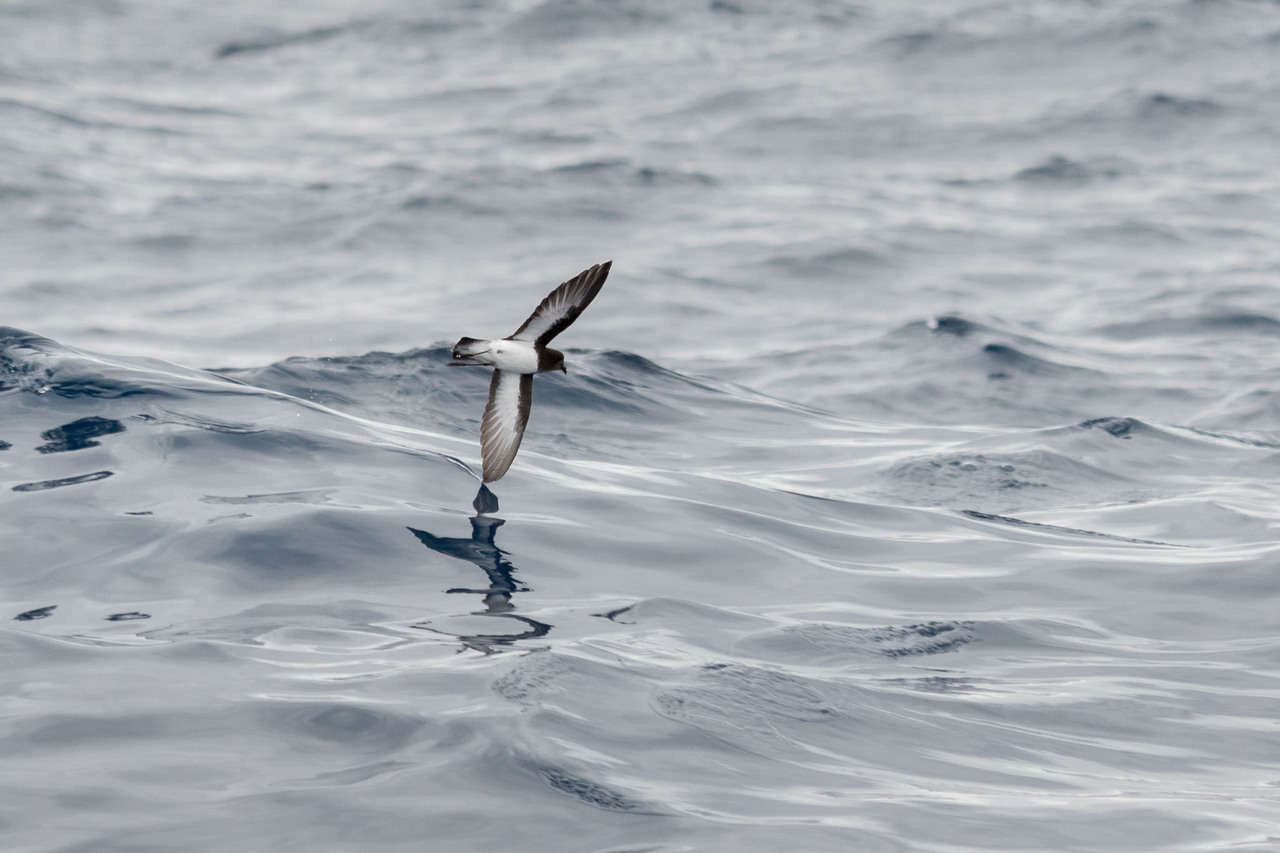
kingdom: Animalia
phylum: Chordata
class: Aves
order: Procellariiformes
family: Hydrobatidae
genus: Garrodia
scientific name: Garrodia nereis
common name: Grey-backed storm petrel
